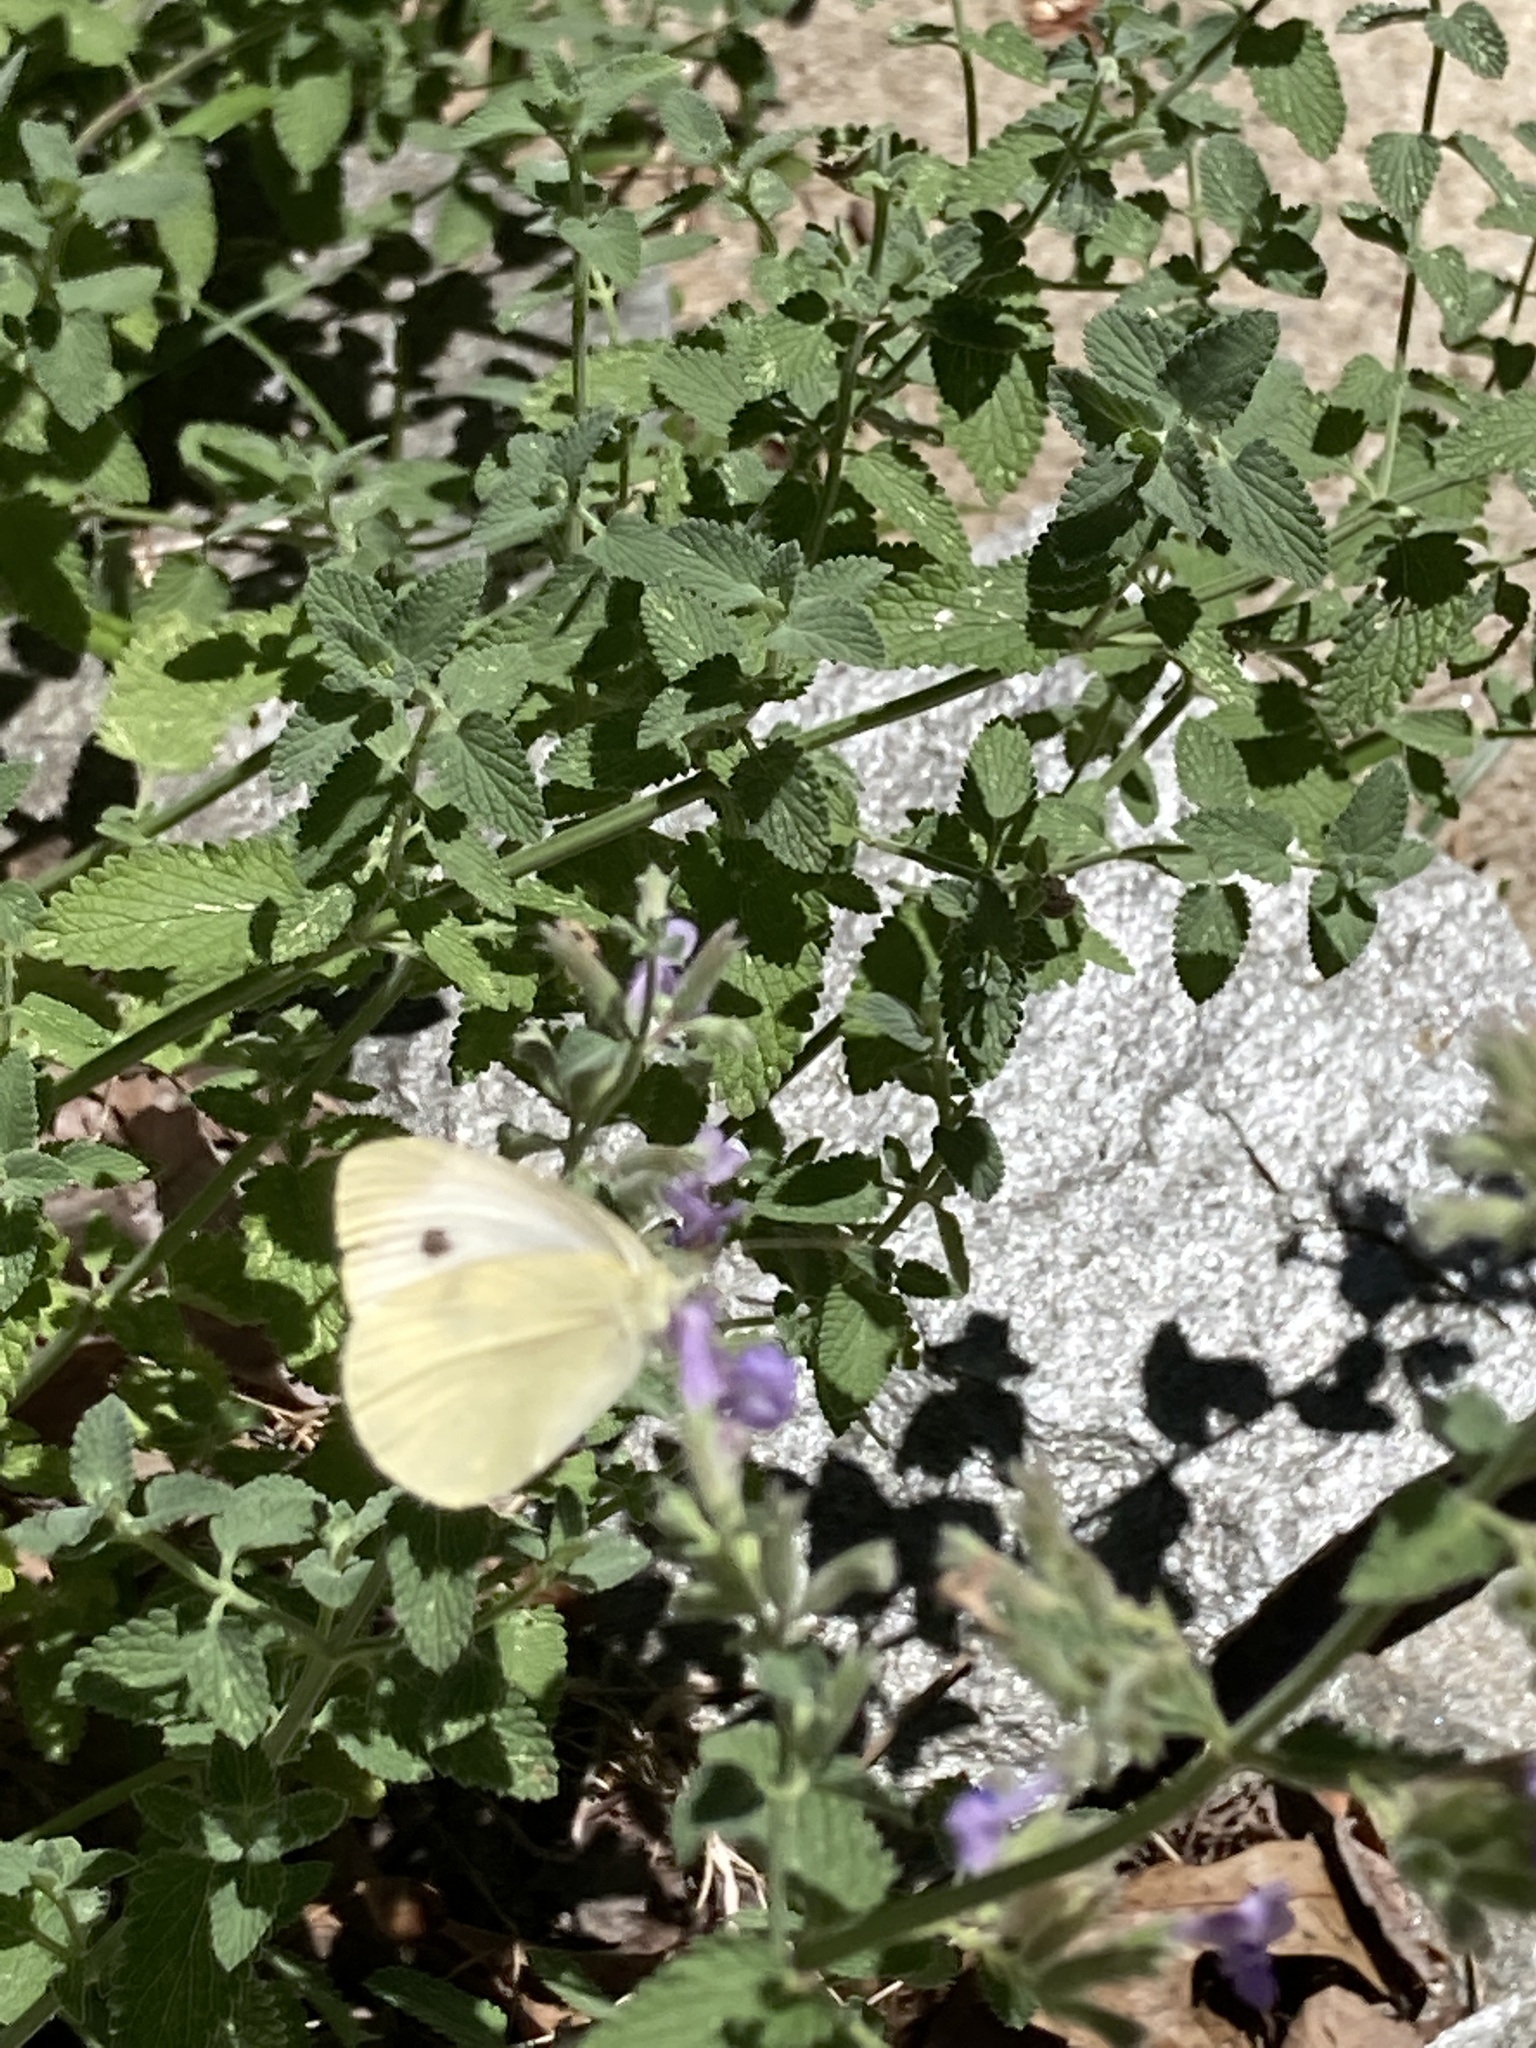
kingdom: Animalia
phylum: Arthropoda
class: Insecta
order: Lepidoptera
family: Pieridae
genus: Pieris
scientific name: Pieris rapae
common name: Small white
